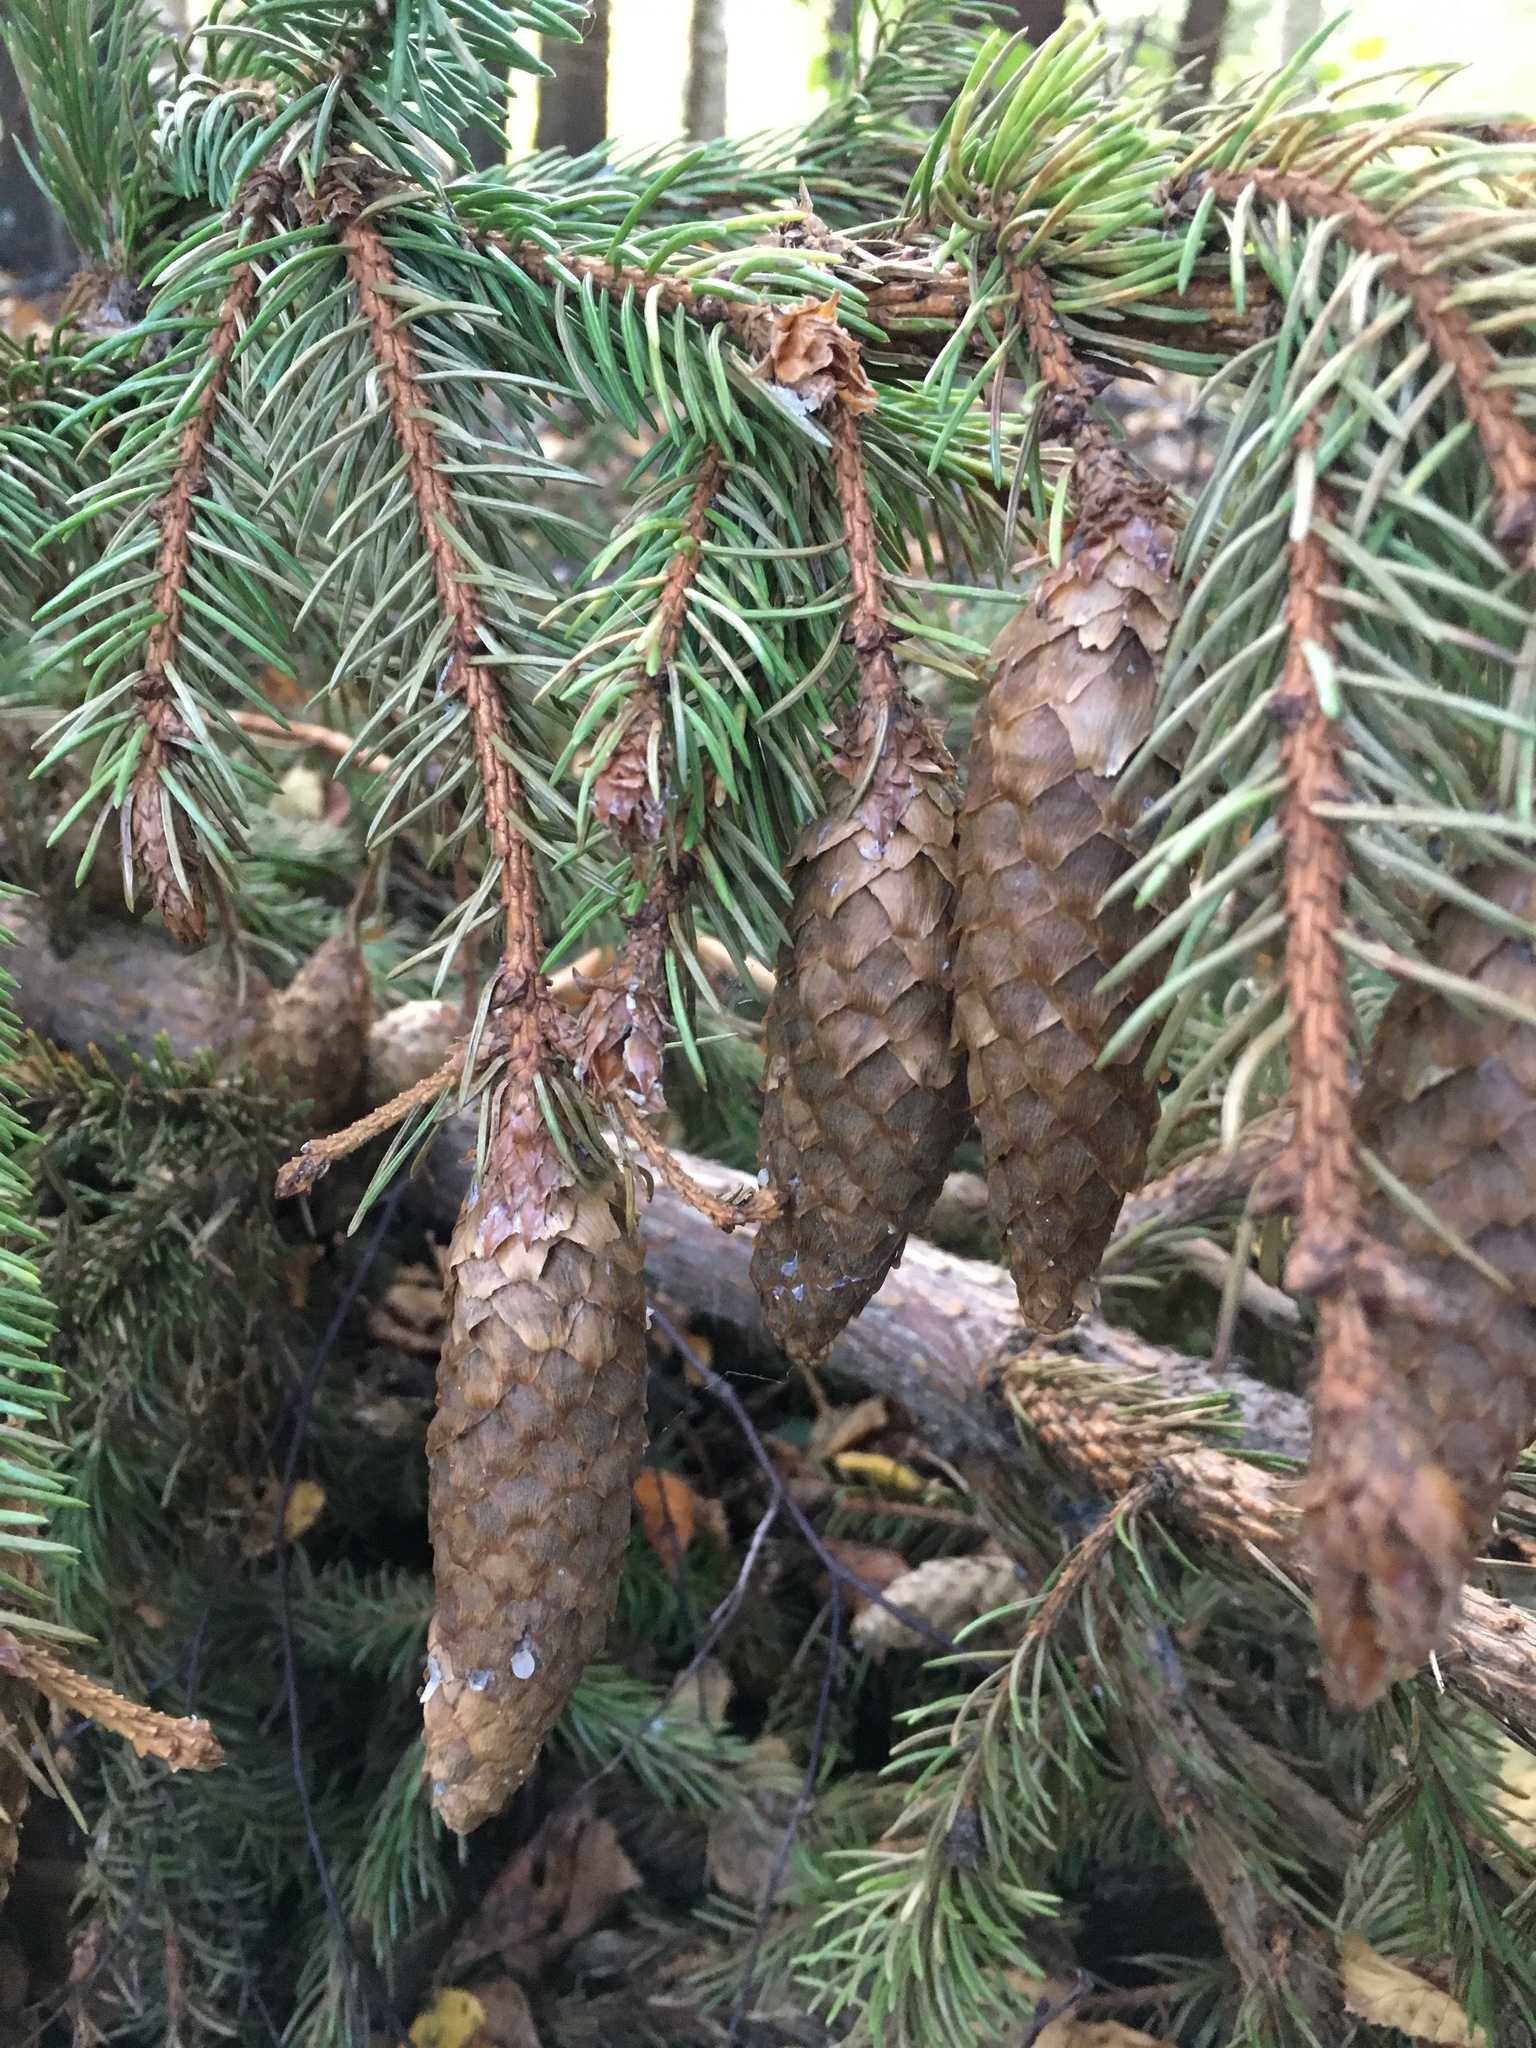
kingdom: Plantae
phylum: Tracheophyta
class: Pinopsida
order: Pinales
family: Pinaceae
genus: Picea
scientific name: Picea abies
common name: Norway spruce
